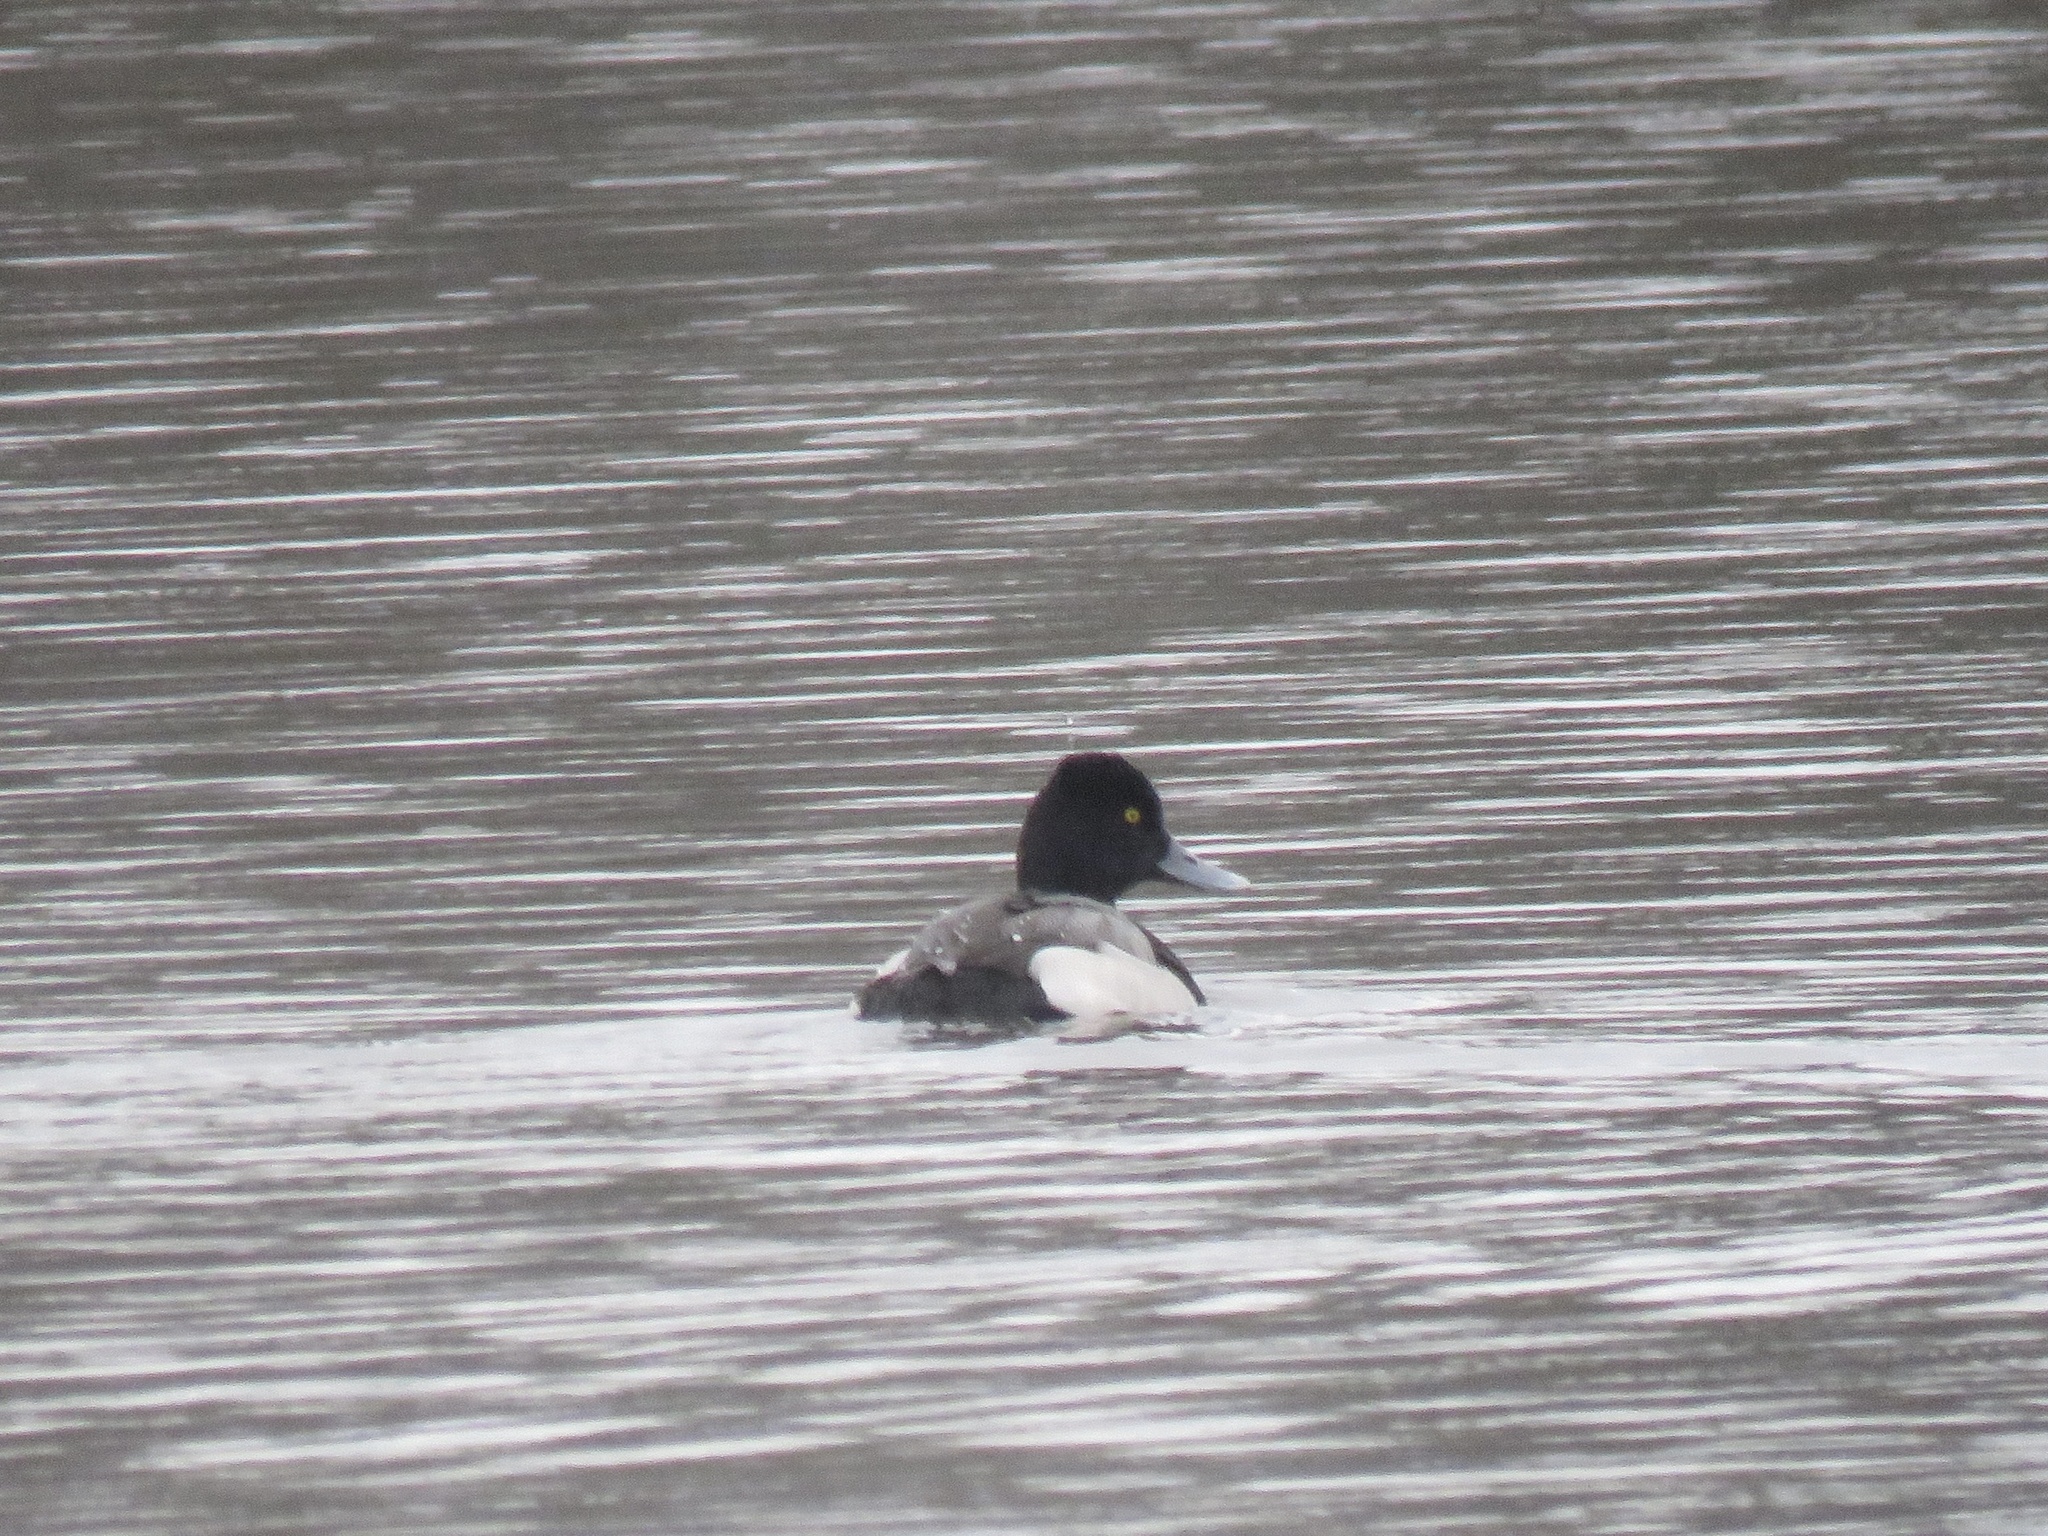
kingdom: Animalia
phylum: Chordata
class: Aves
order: Anseriformes
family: Anatidae
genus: Aythya
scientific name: Aythya affinis
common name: Lesser scaup
